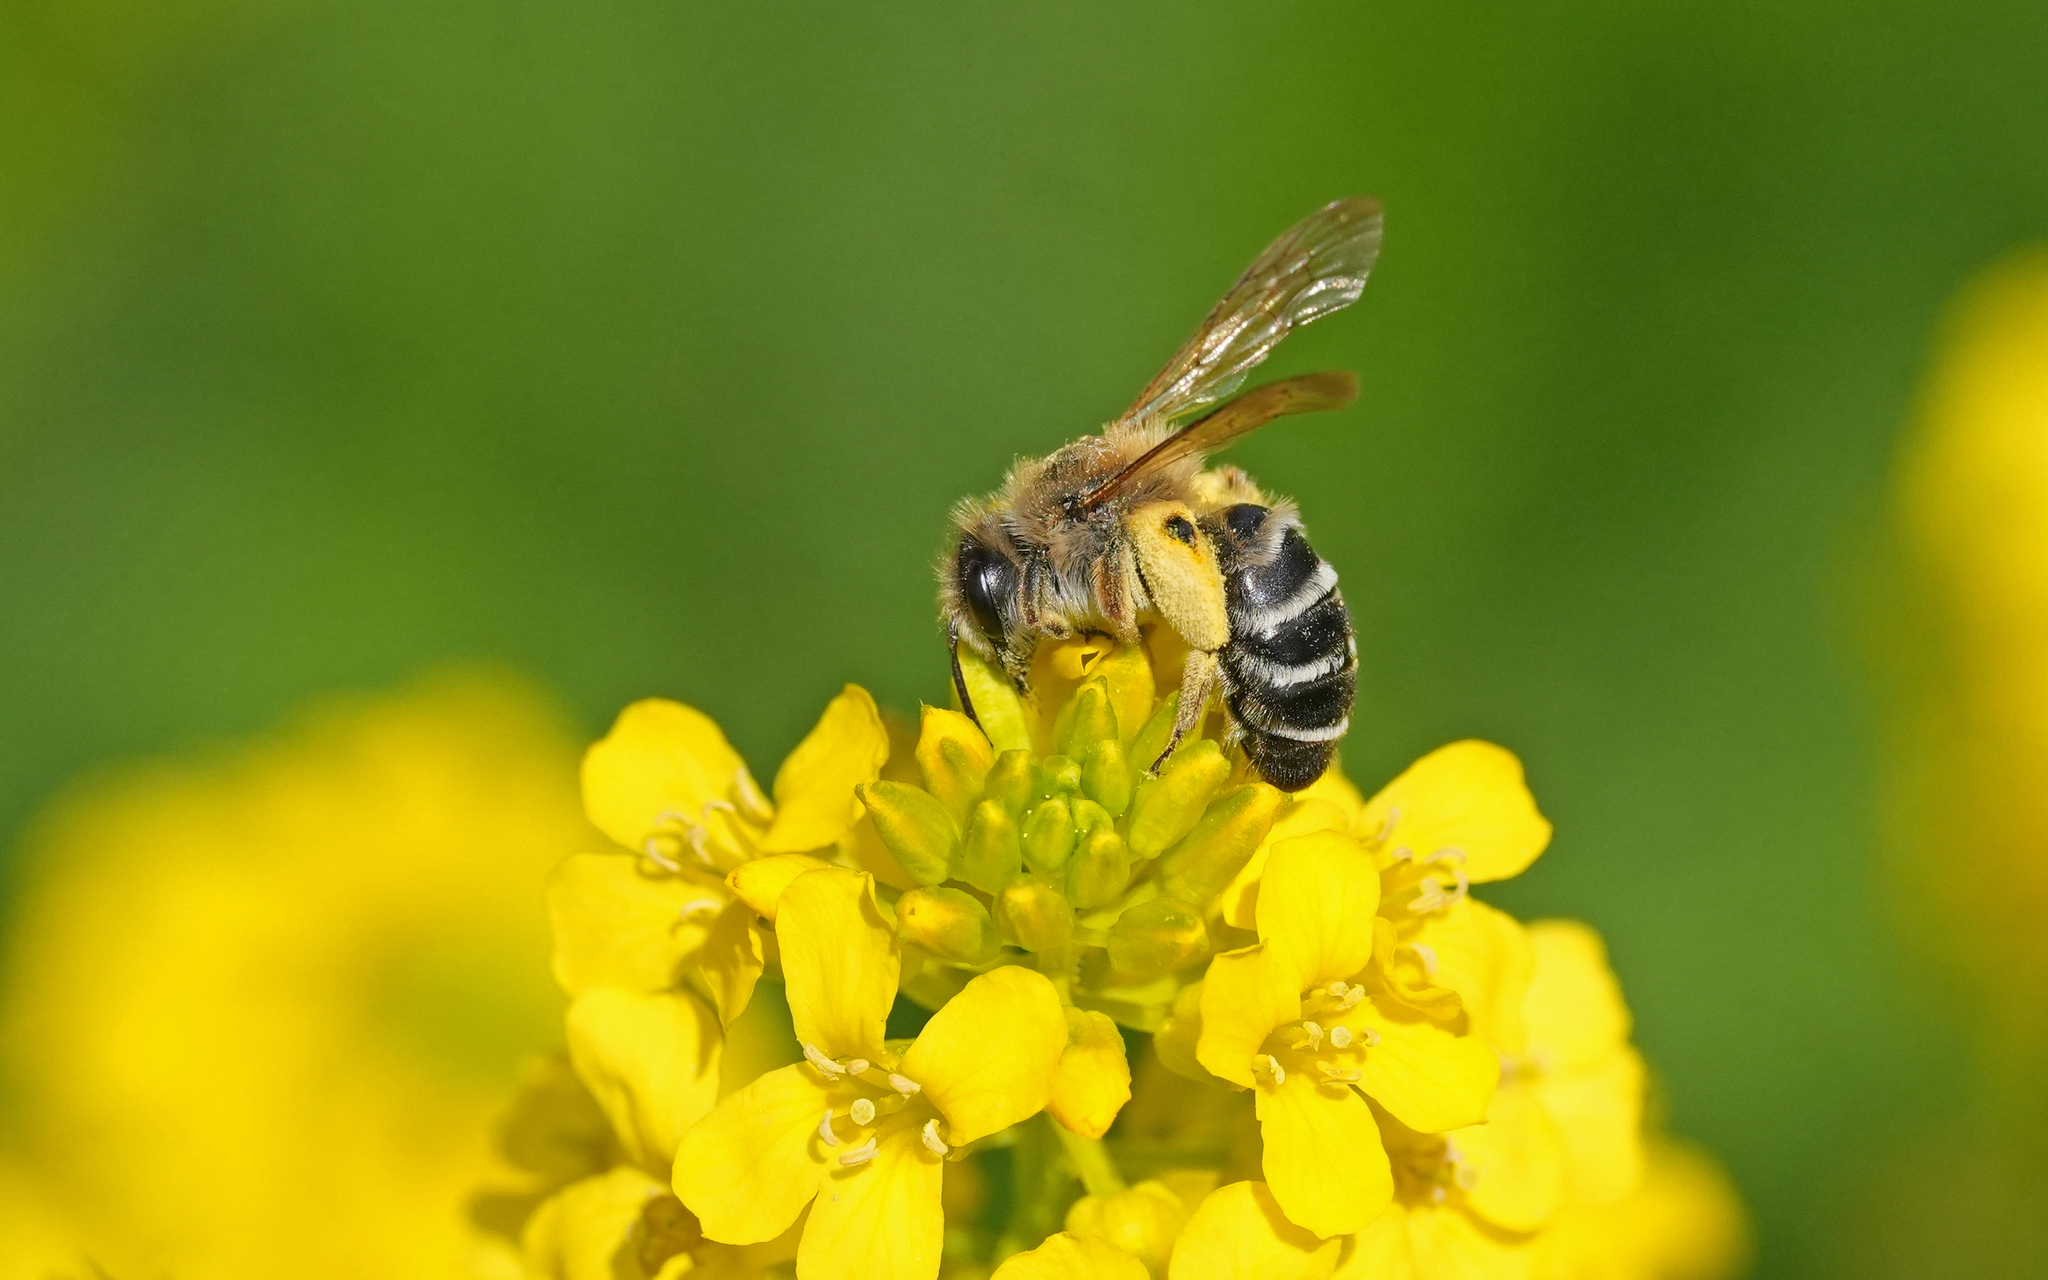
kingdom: Animalia
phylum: Arthropoda
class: Insecta
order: Hymenoptera
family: Andrenidae
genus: Andrena
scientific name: Andrena gravida
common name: White-bellied mining bee
